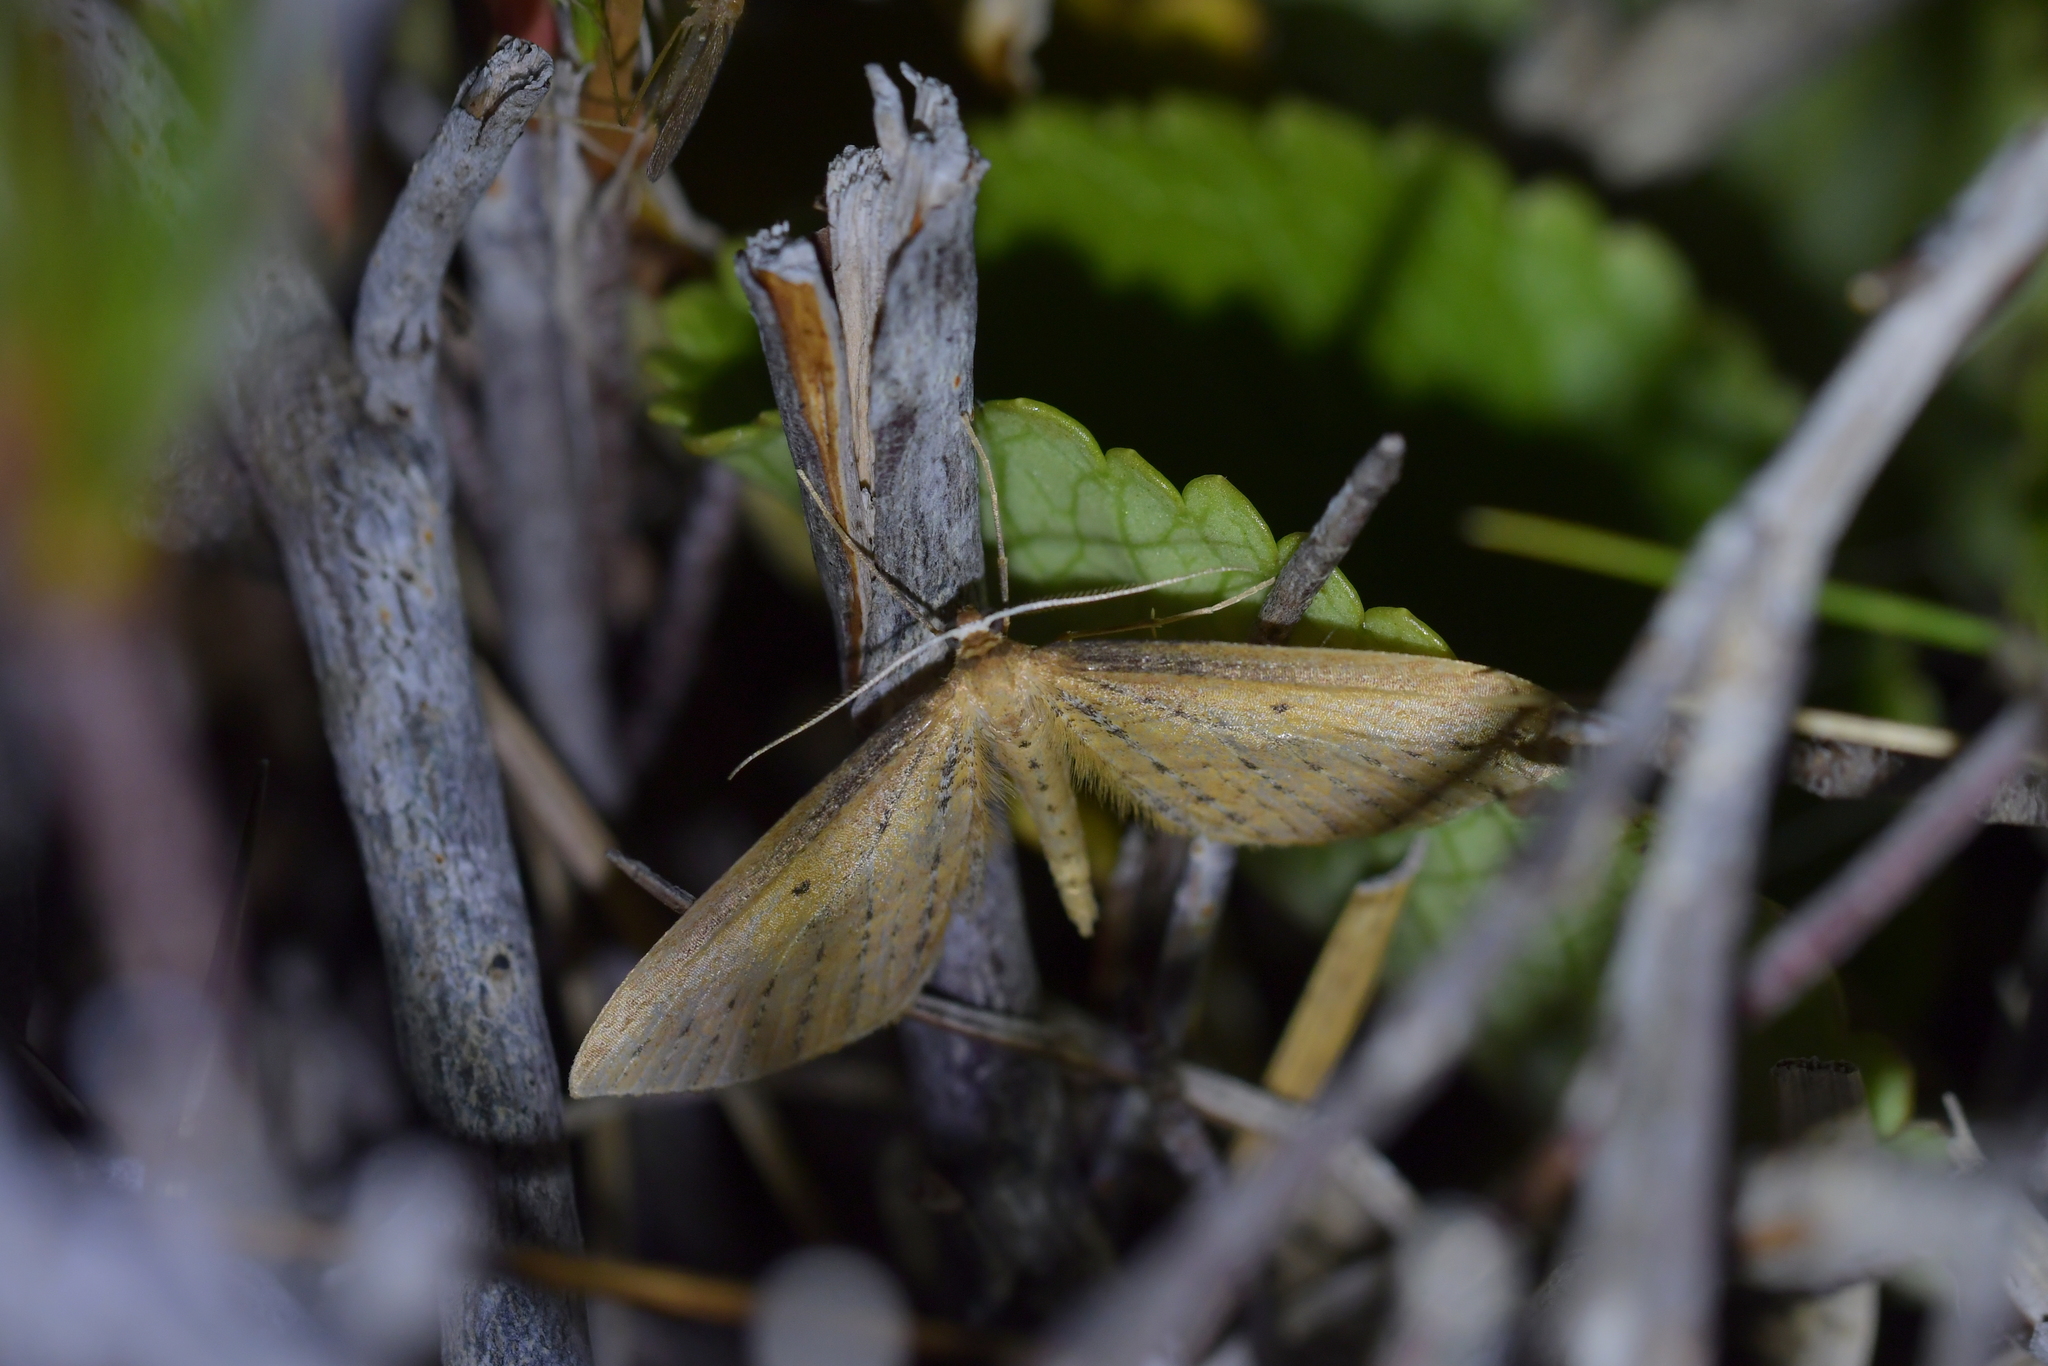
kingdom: Animalia
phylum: Arthropoda
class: Insecta
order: Lepidoptera
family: Geometridae
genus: Epiphryne
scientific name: Epiphryne charidema
